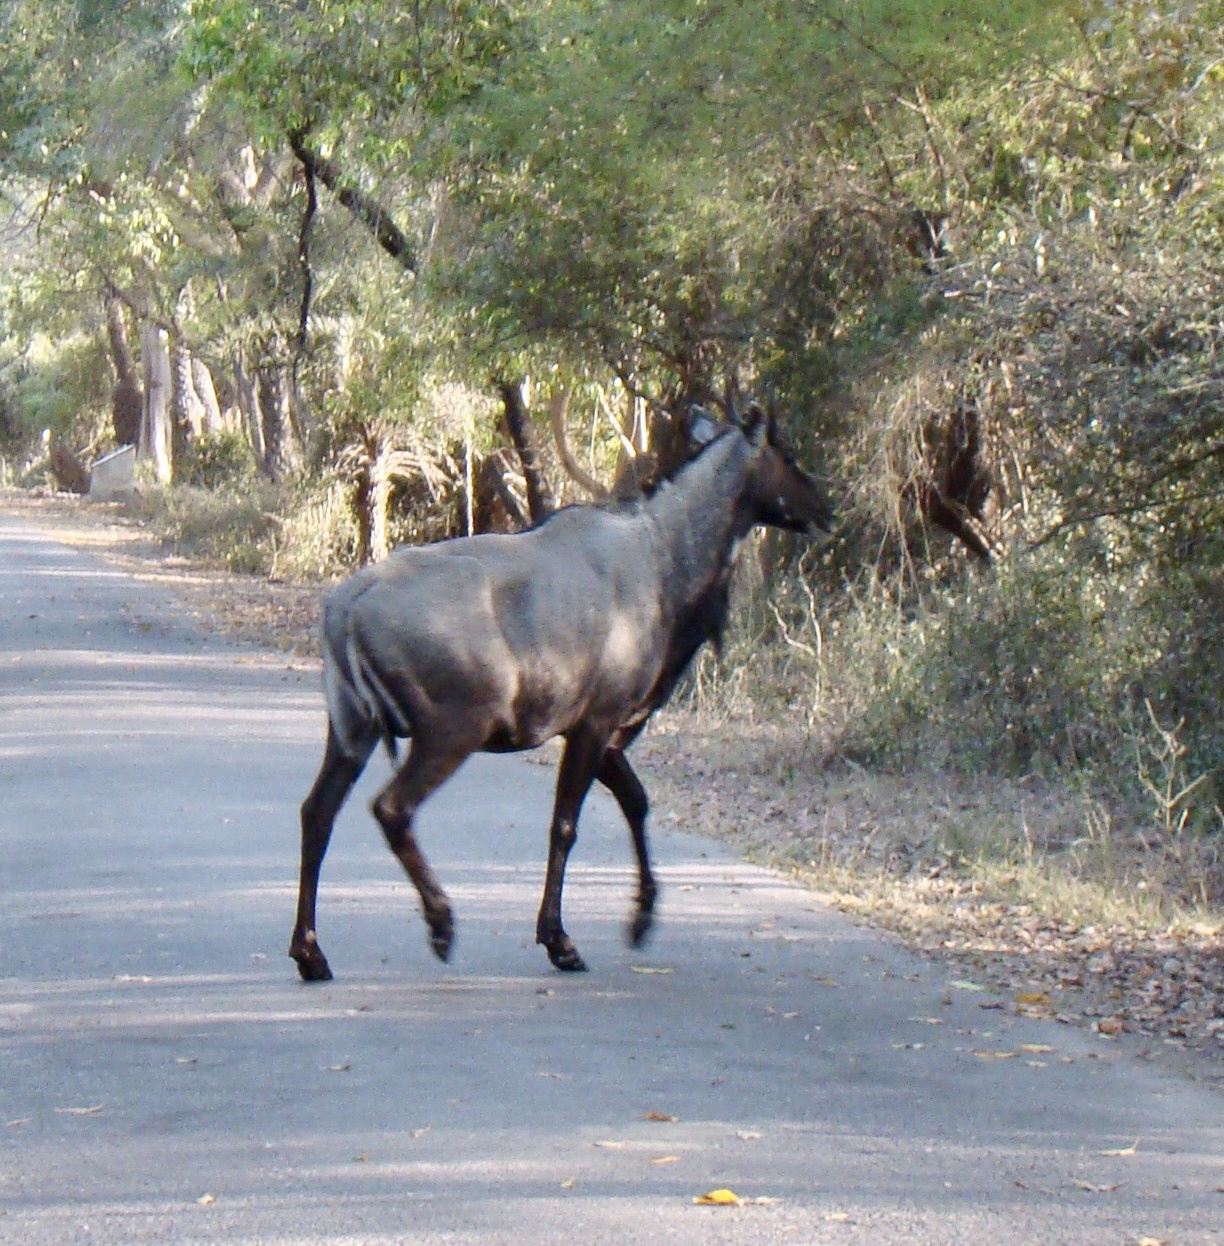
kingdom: Animalia
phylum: Chordata
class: Mammalia
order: Artiodactyla
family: Bovidae
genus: Boselaphus
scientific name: Boselaphus tragocamelus
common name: Nilgai
